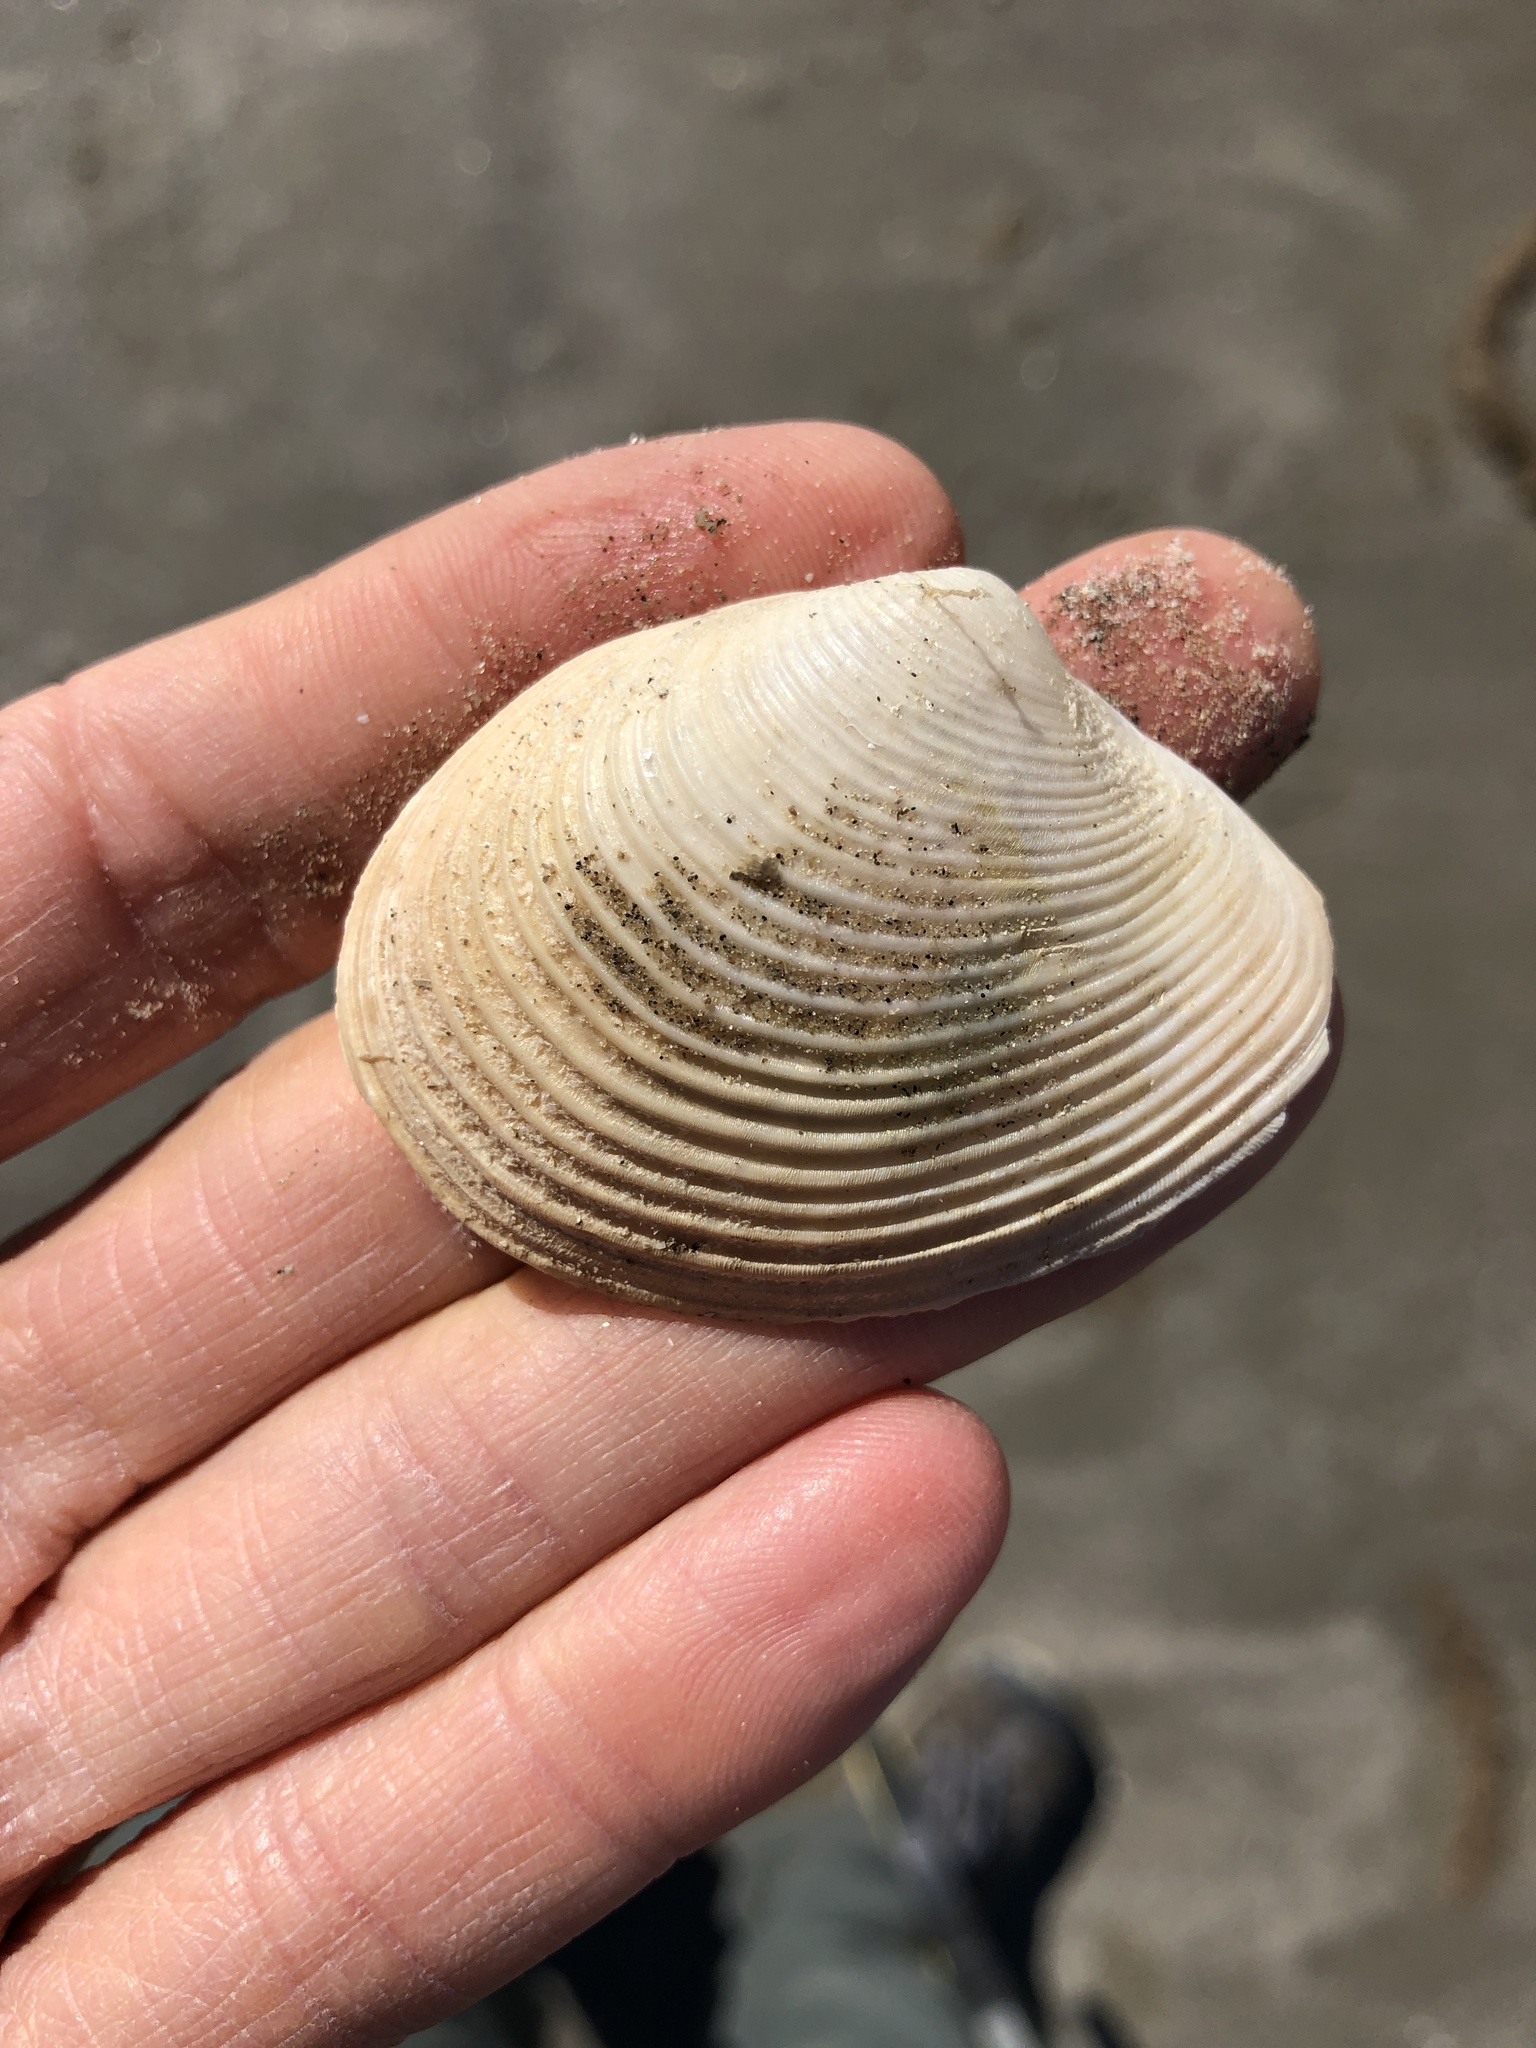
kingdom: Animalia
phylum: Mollusca
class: Bivalvia
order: Venerida
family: Anatinellidae
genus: Raeta
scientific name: Raeta plicatella
